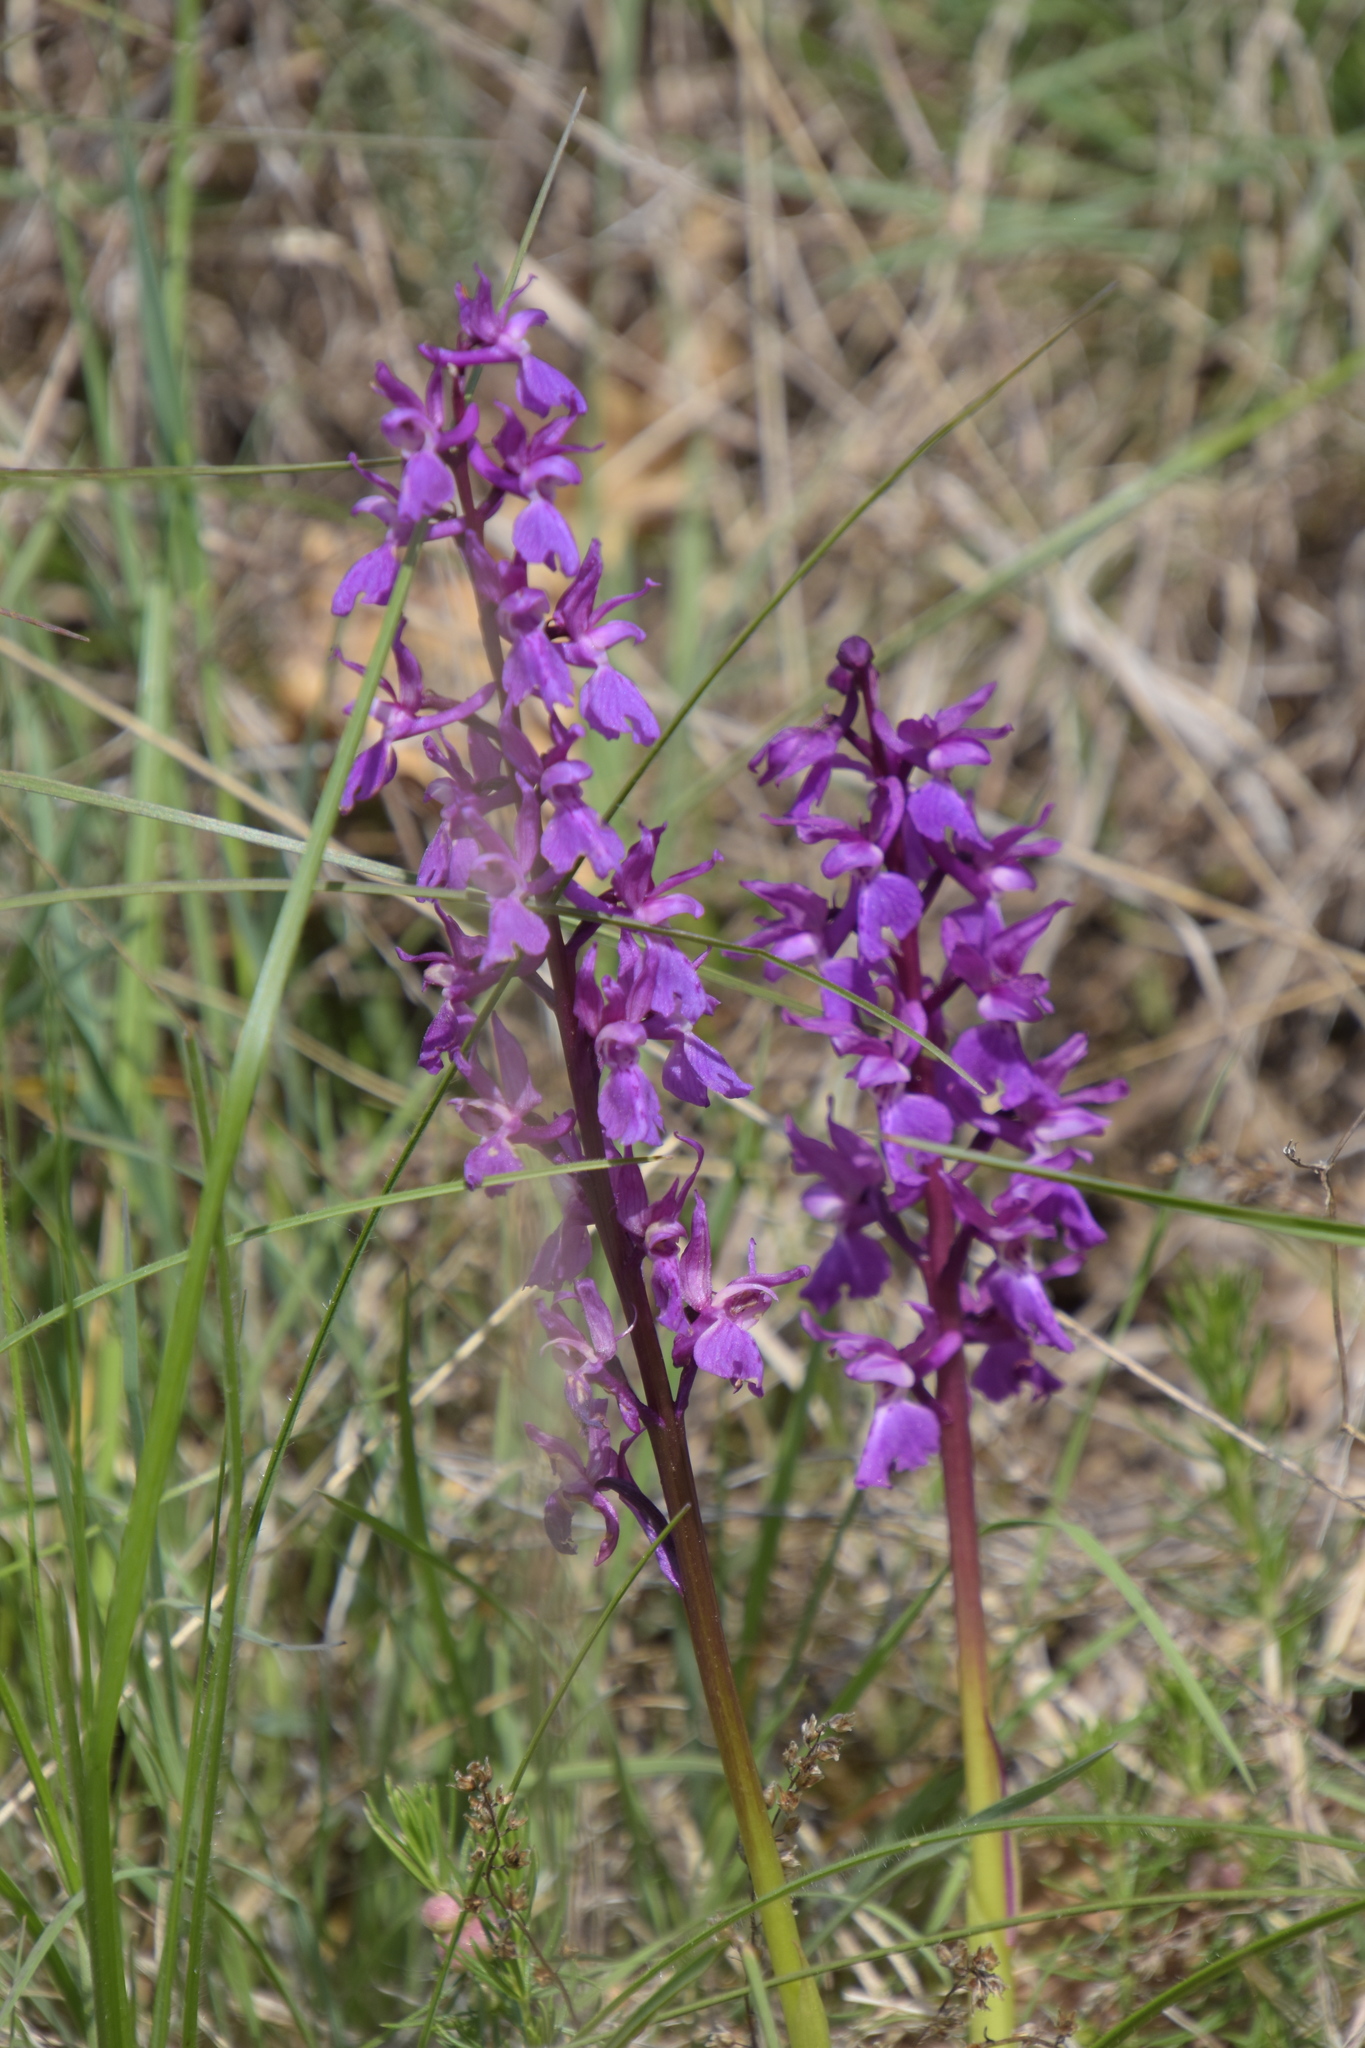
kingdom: Plantae
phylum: Tracheophyta
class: Liliopsida
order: Asparagales
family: Orchidaceae
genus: Orchis
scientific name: Orchis mascula
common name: Early-purple orchid
